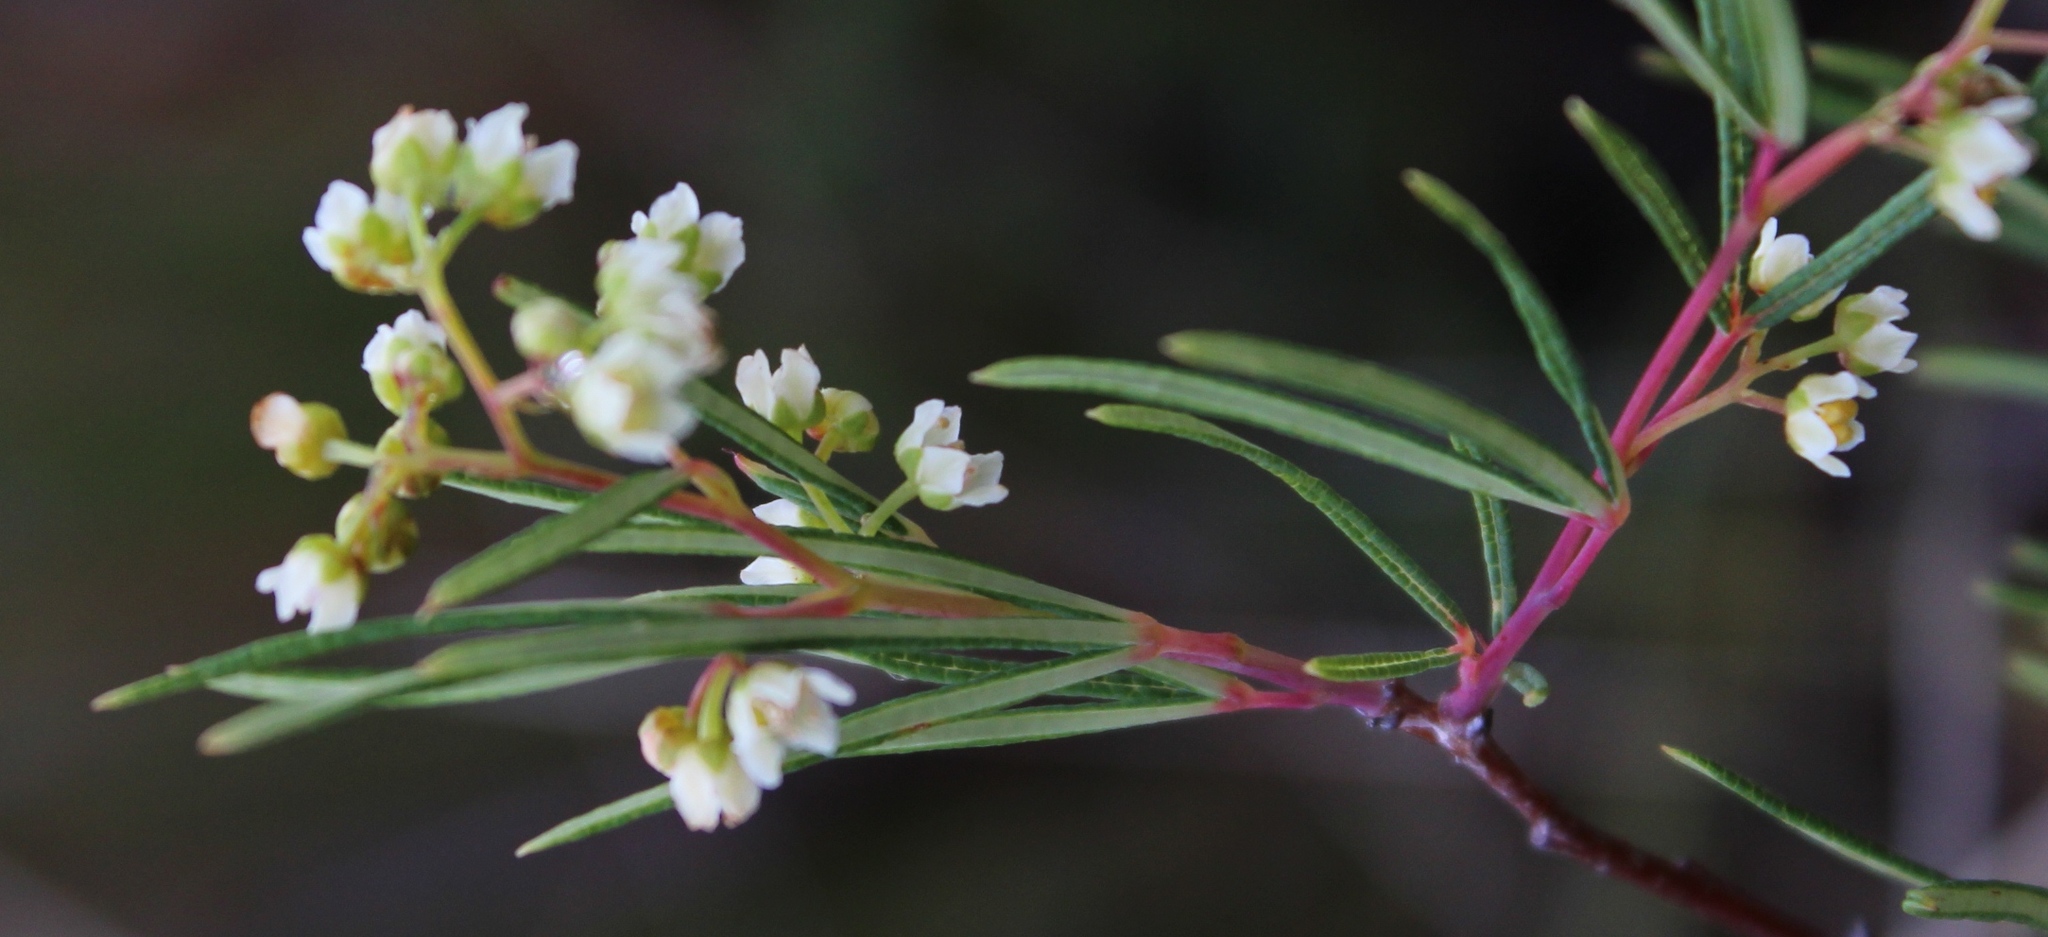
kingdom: Plantae
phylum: Tracheophyta
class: Magnoliopsida
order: Sapindales
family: Anacardiaceae
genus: Searsia
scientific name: Searsia rosmarinifolia
